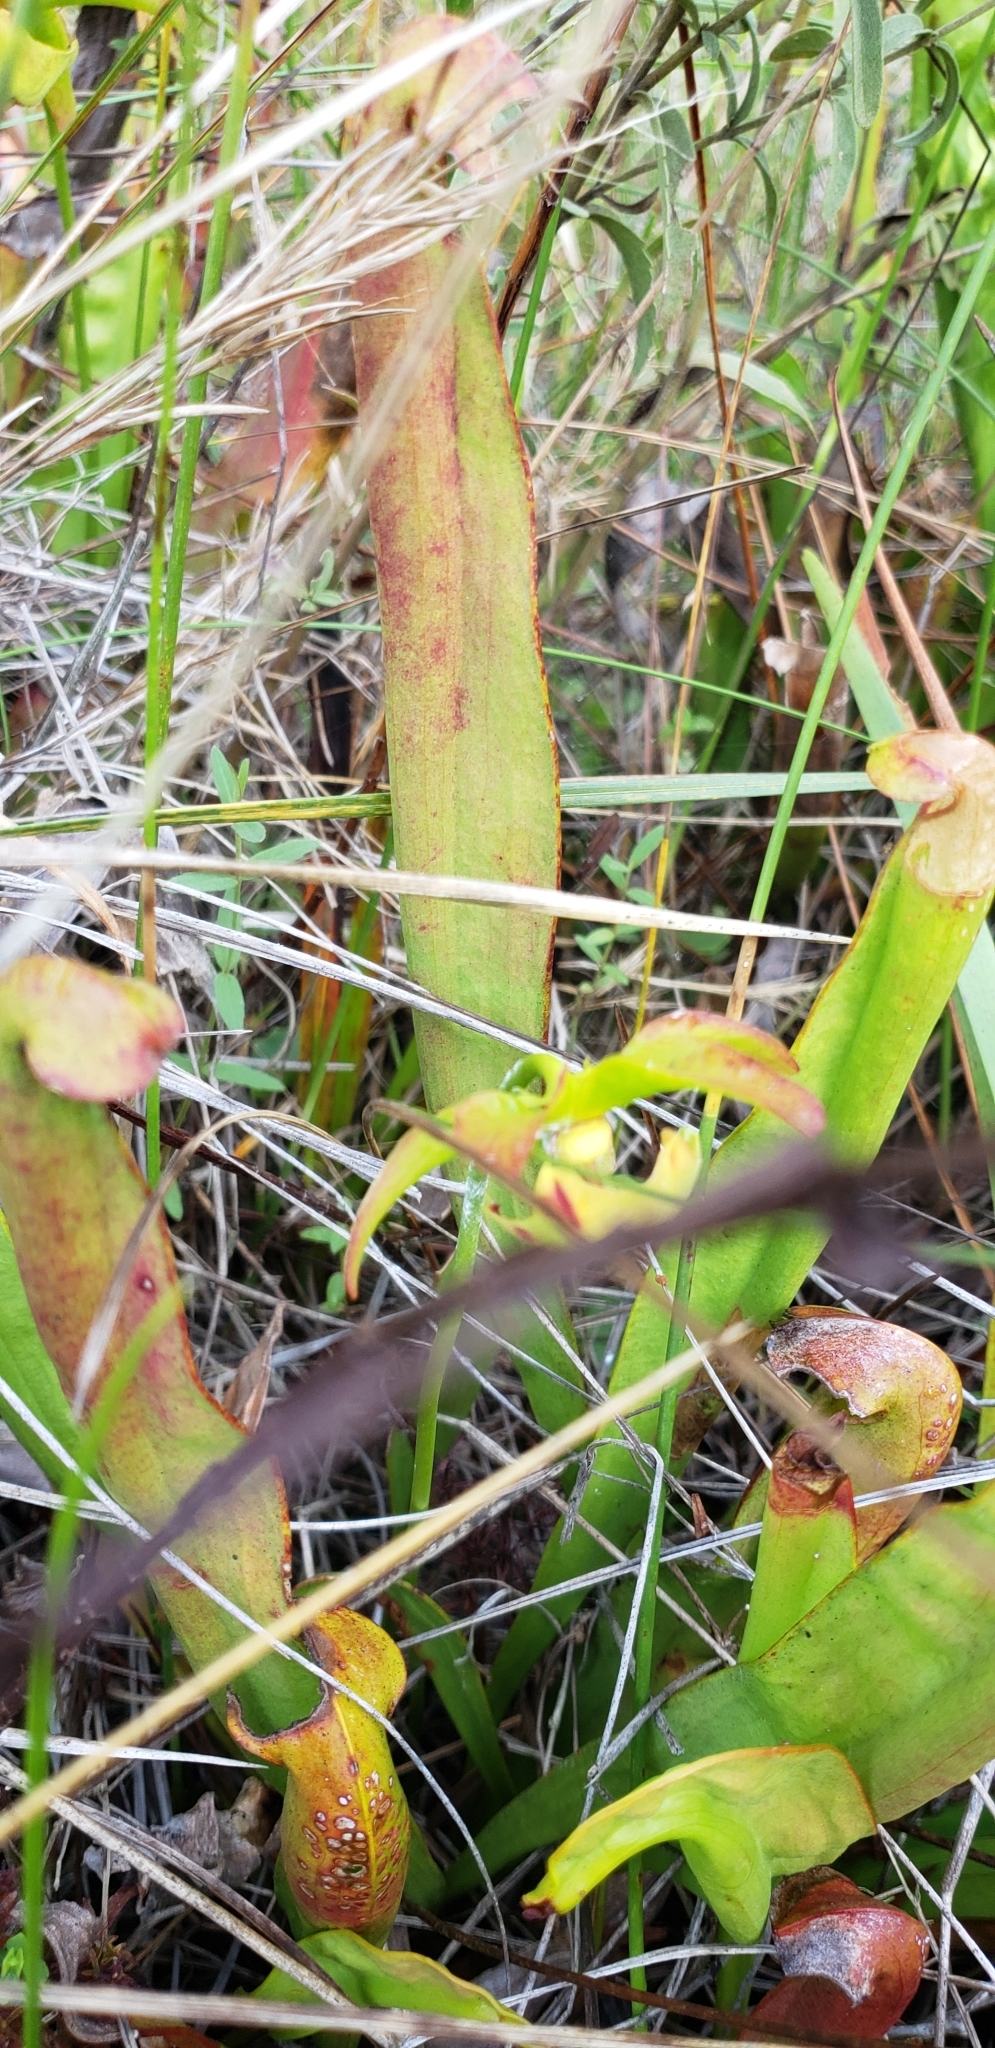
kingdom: Plantae
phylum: Tracheophyta
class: Magnoliopsida
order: Ericales
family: Sarraceniaceae
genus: Sarracenia
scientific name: Sarracenia minor
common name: Rainhat-trumpet
